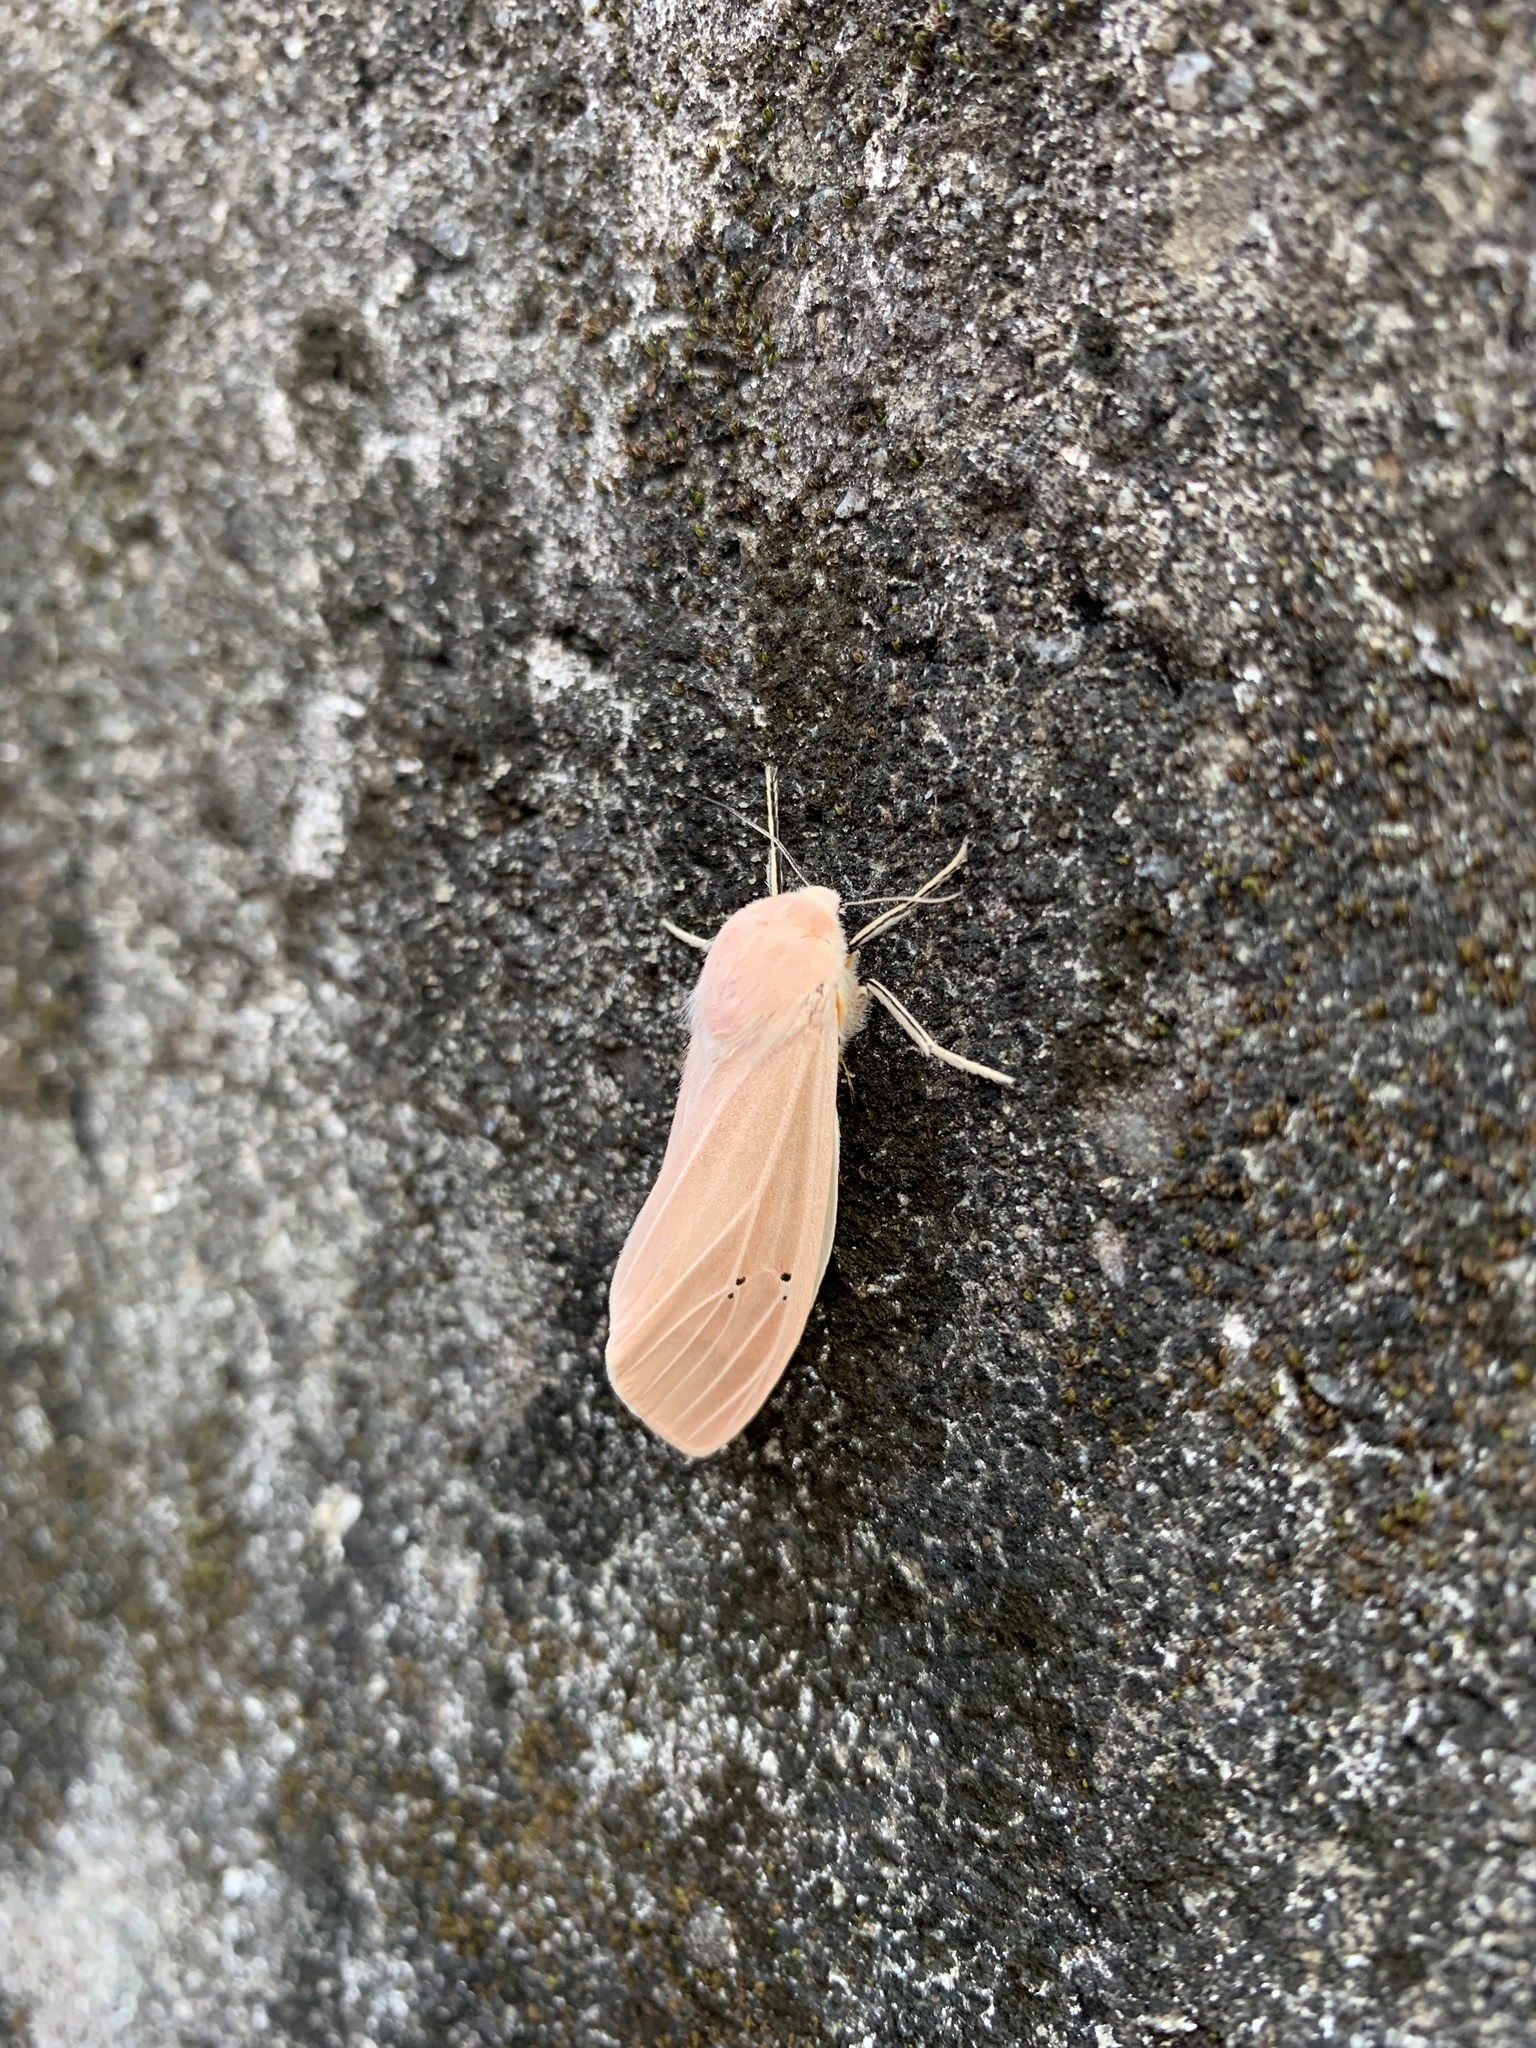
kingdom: Animalia
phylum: Arthropoda
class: Insecta
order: Lepidoptera
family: Erebidae
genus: Creatonotos
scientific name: Creatonotos transiens
